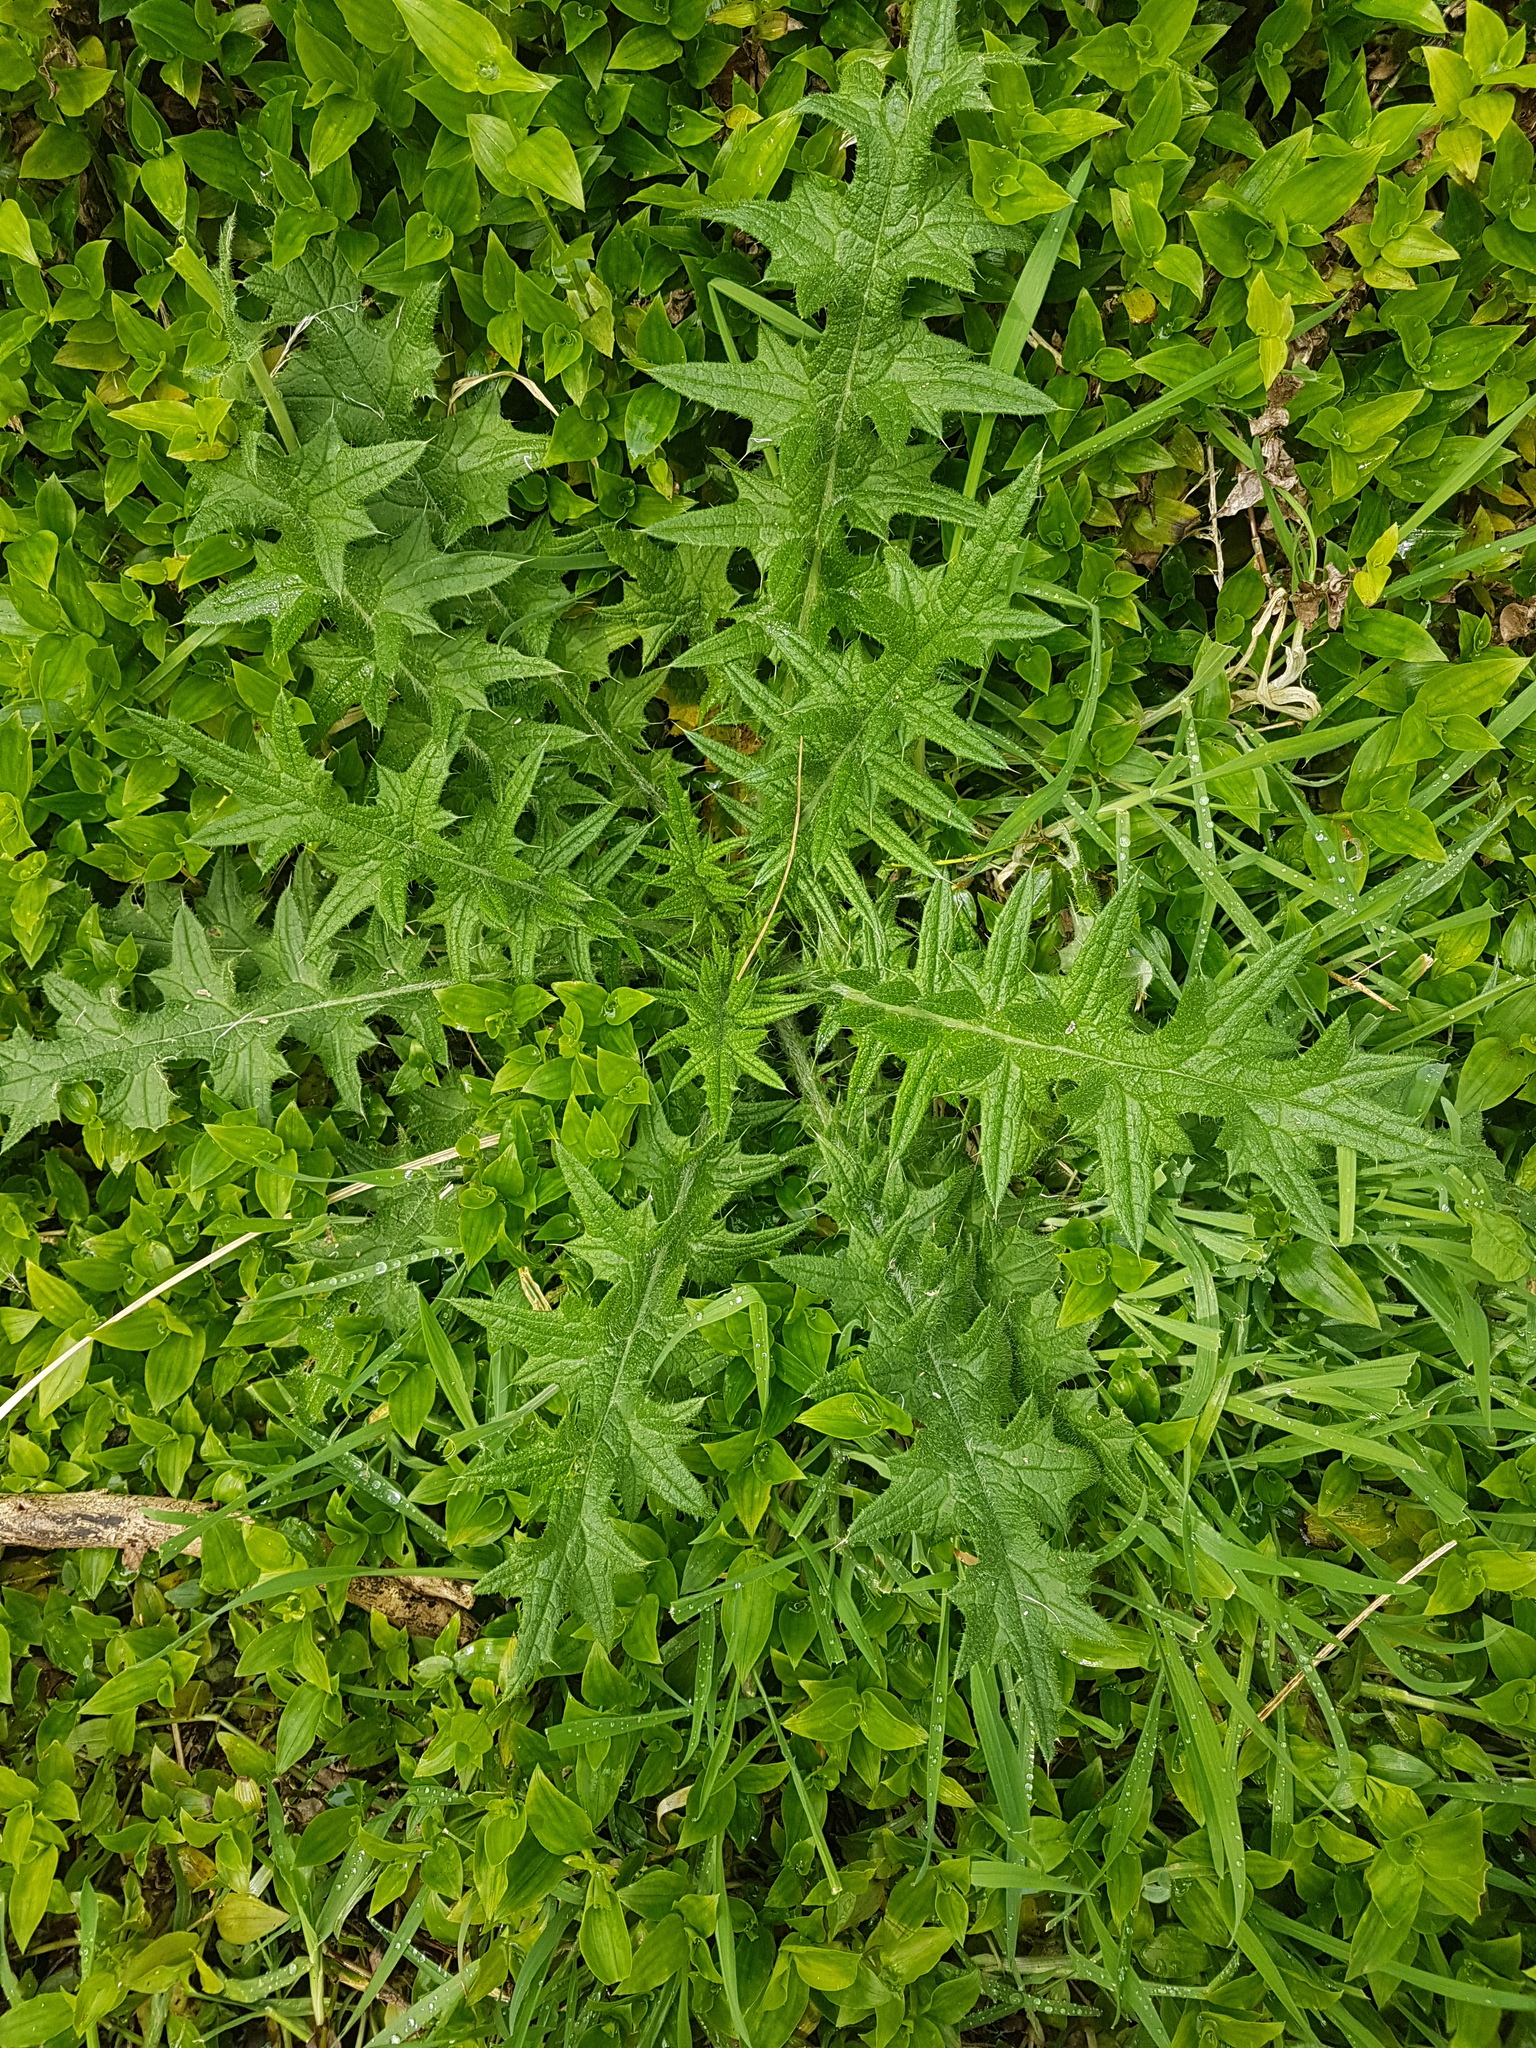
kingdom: Plantae
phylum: Tracheophyta
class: Magnoliopsida
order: Asterales
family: Asteraceae
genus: Cirsium
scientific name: Cirsium vulgare
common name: Bull thistle
